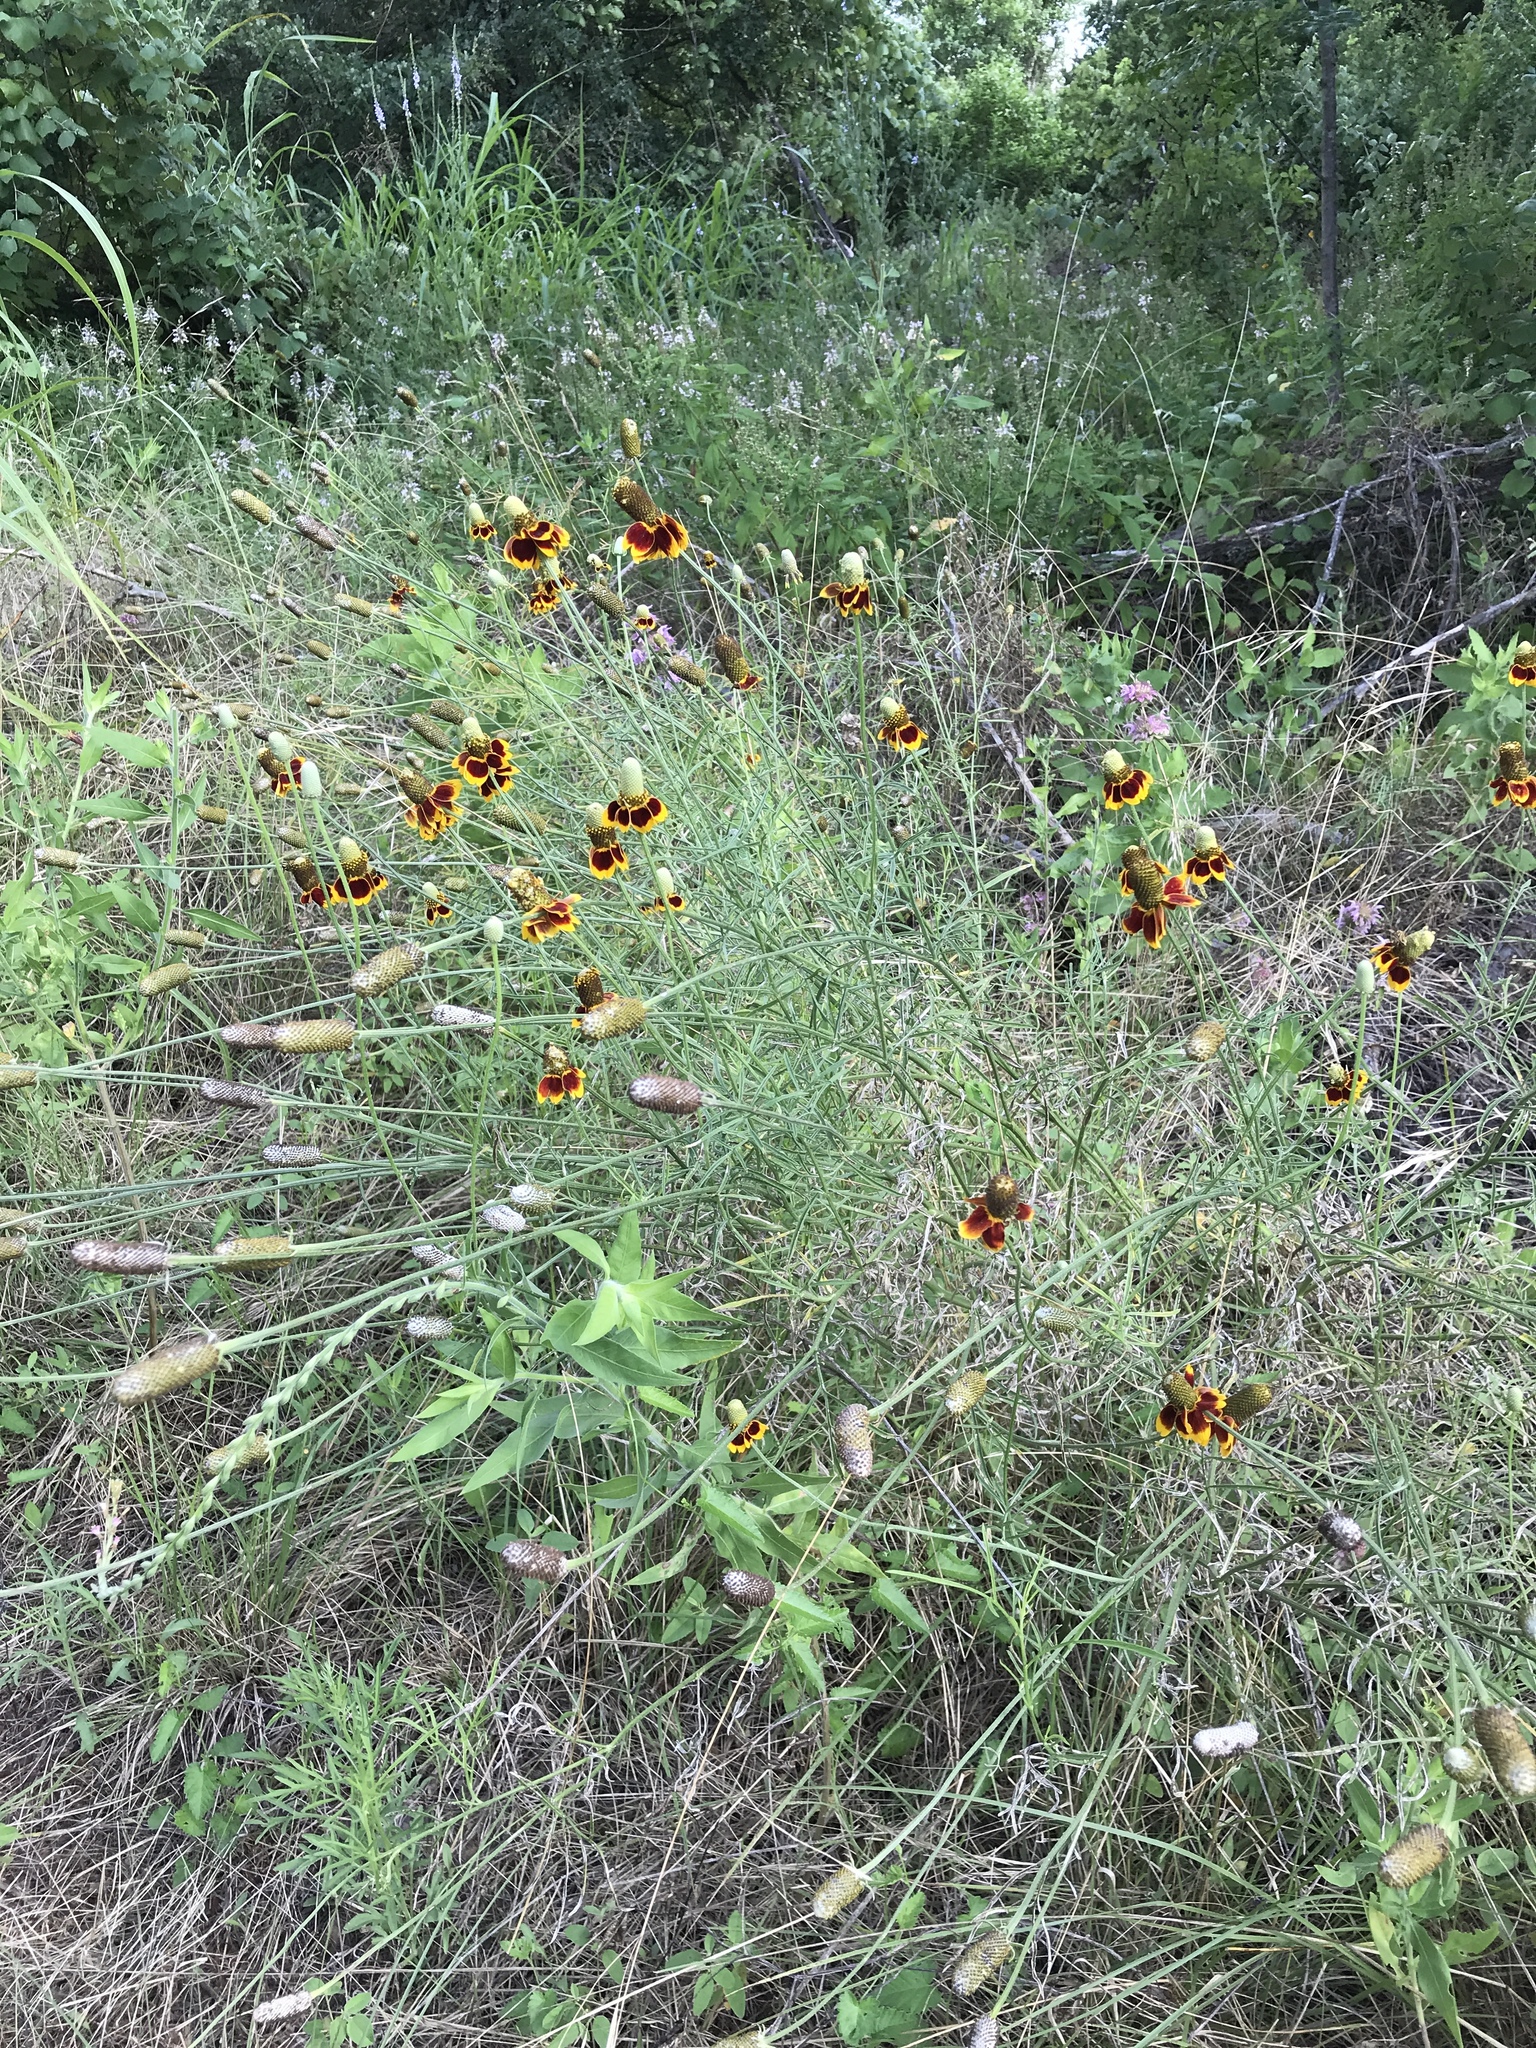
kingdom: Plantae
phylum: Tracheophyta
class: Magnoliopsida
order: Asterales
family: Asteraceae
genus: Ratibida
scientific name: Ratibida columnifera
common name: Prairie coneflower
